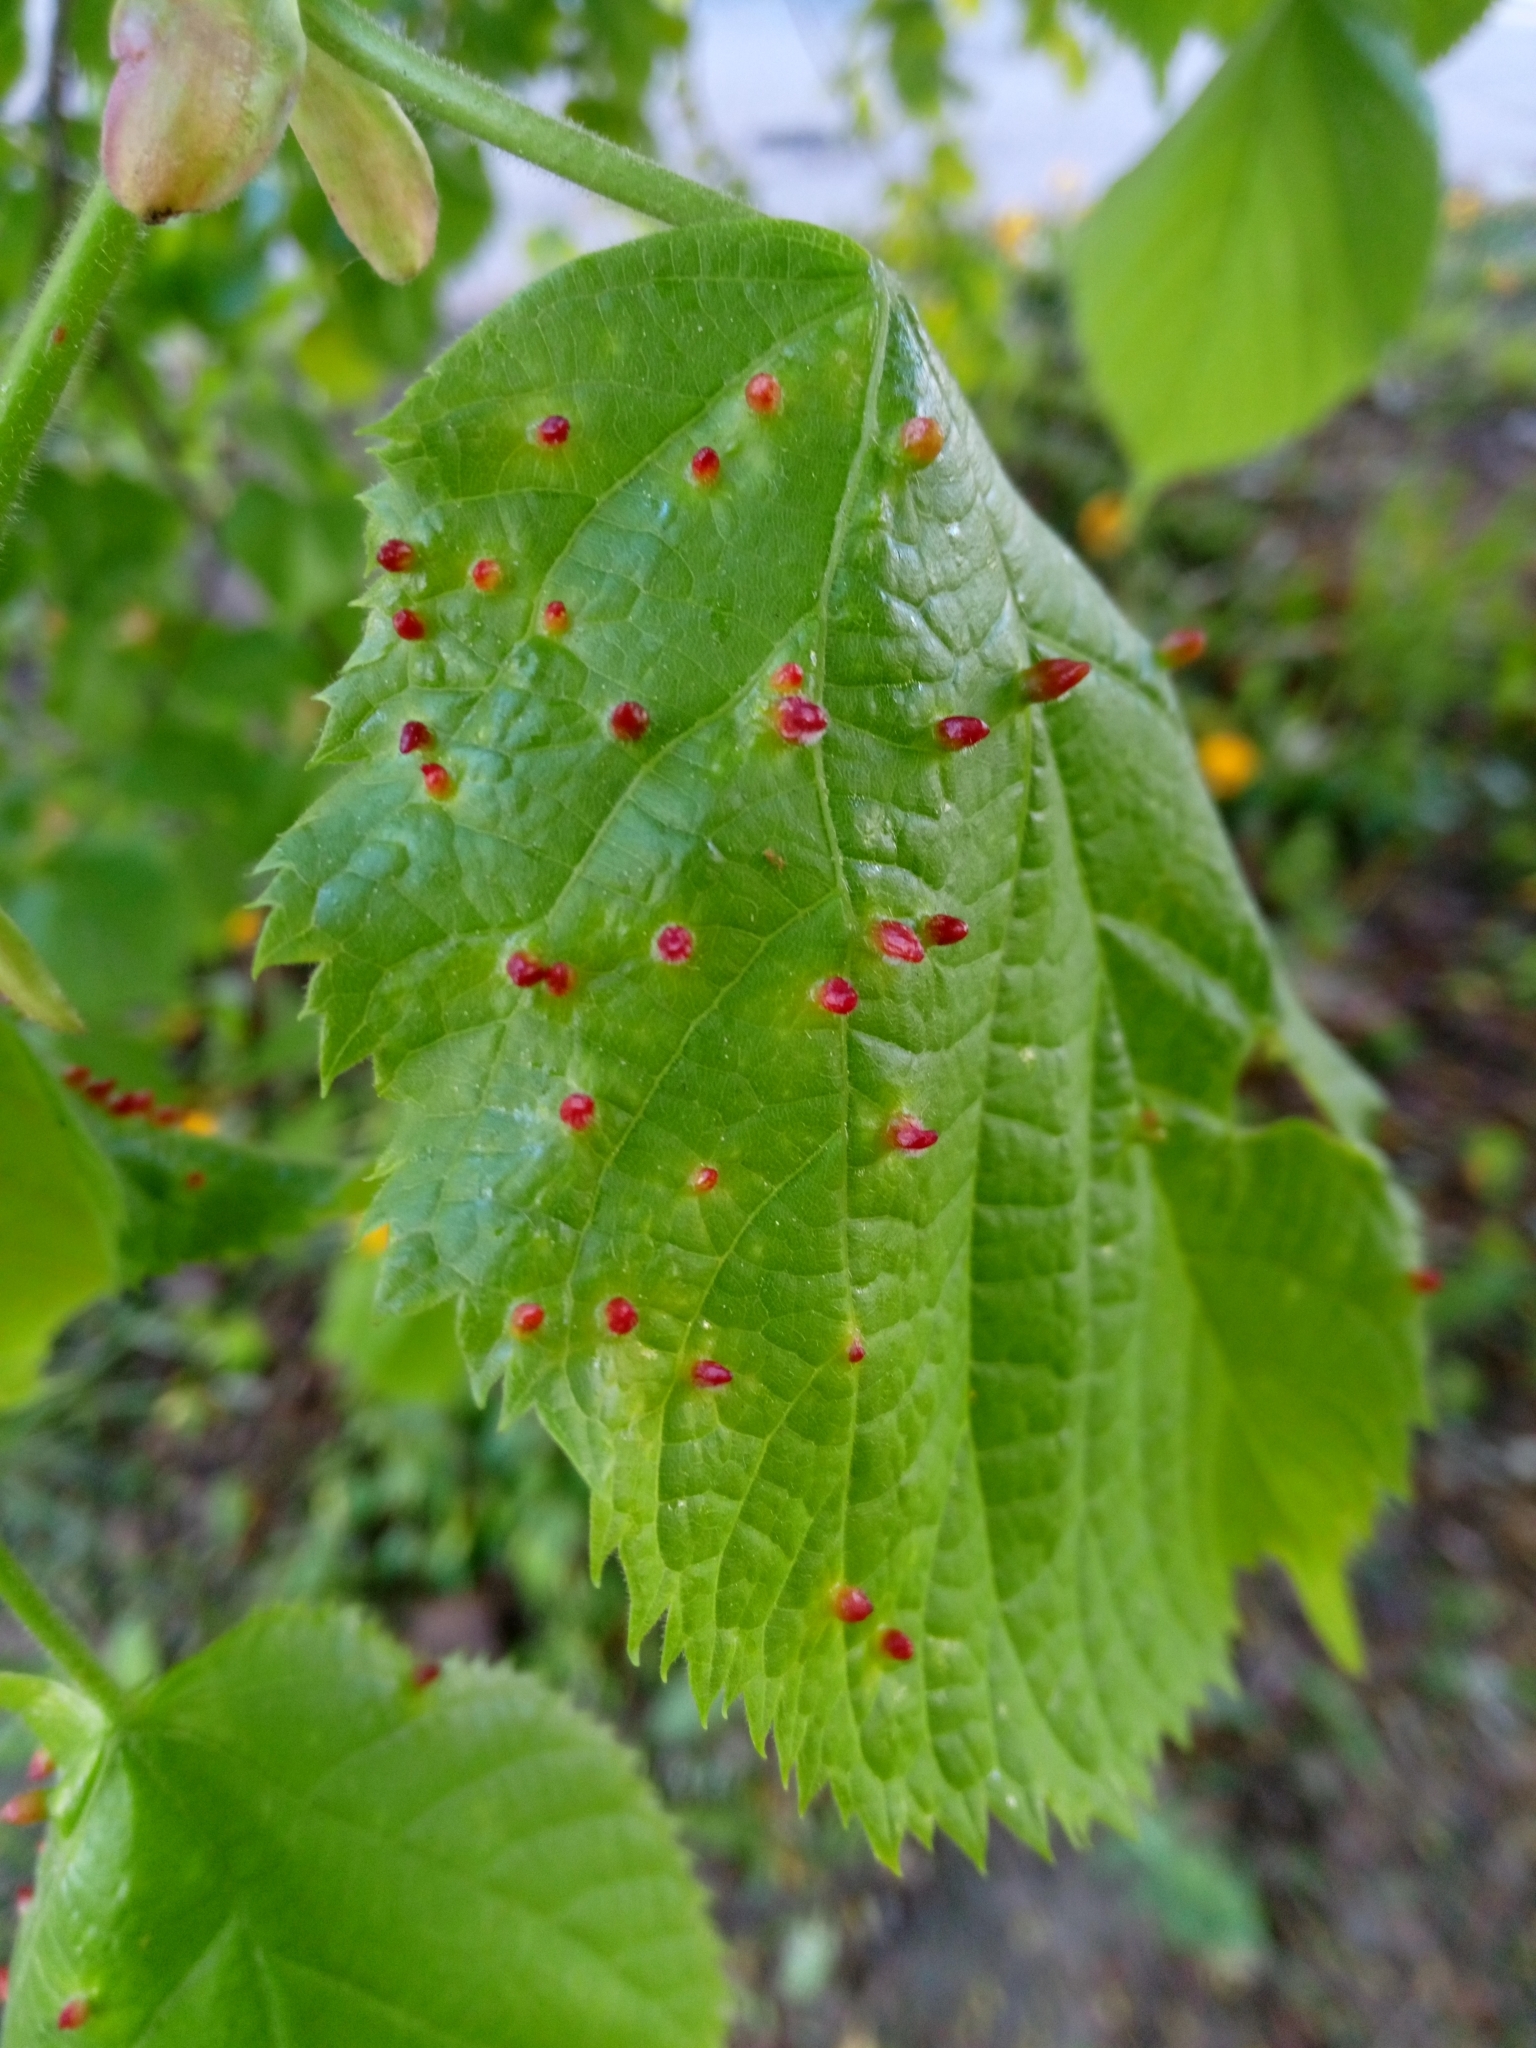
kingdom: Animalia
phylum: Arthropoda
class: Arachnida
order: Trombidiformes
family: Eriophyidae
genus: Eriophyes
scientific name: Eriophyes tiliae
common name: Red nail gall mite
